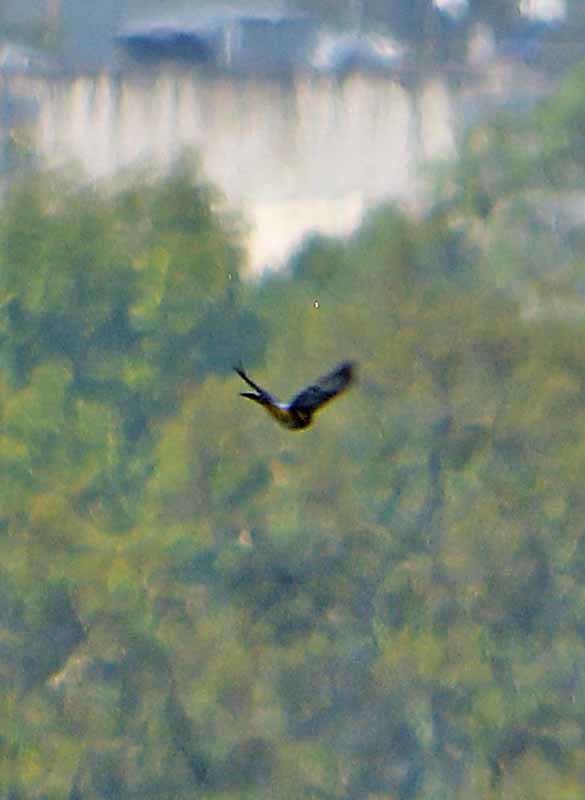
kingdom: Animalia
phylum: Chordata
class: Aves
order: Passeriformes
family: Ptilogonatidae
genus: Ptilogonys
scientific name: Ptilogonys cinereus
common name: Gray silky-flycatcher
